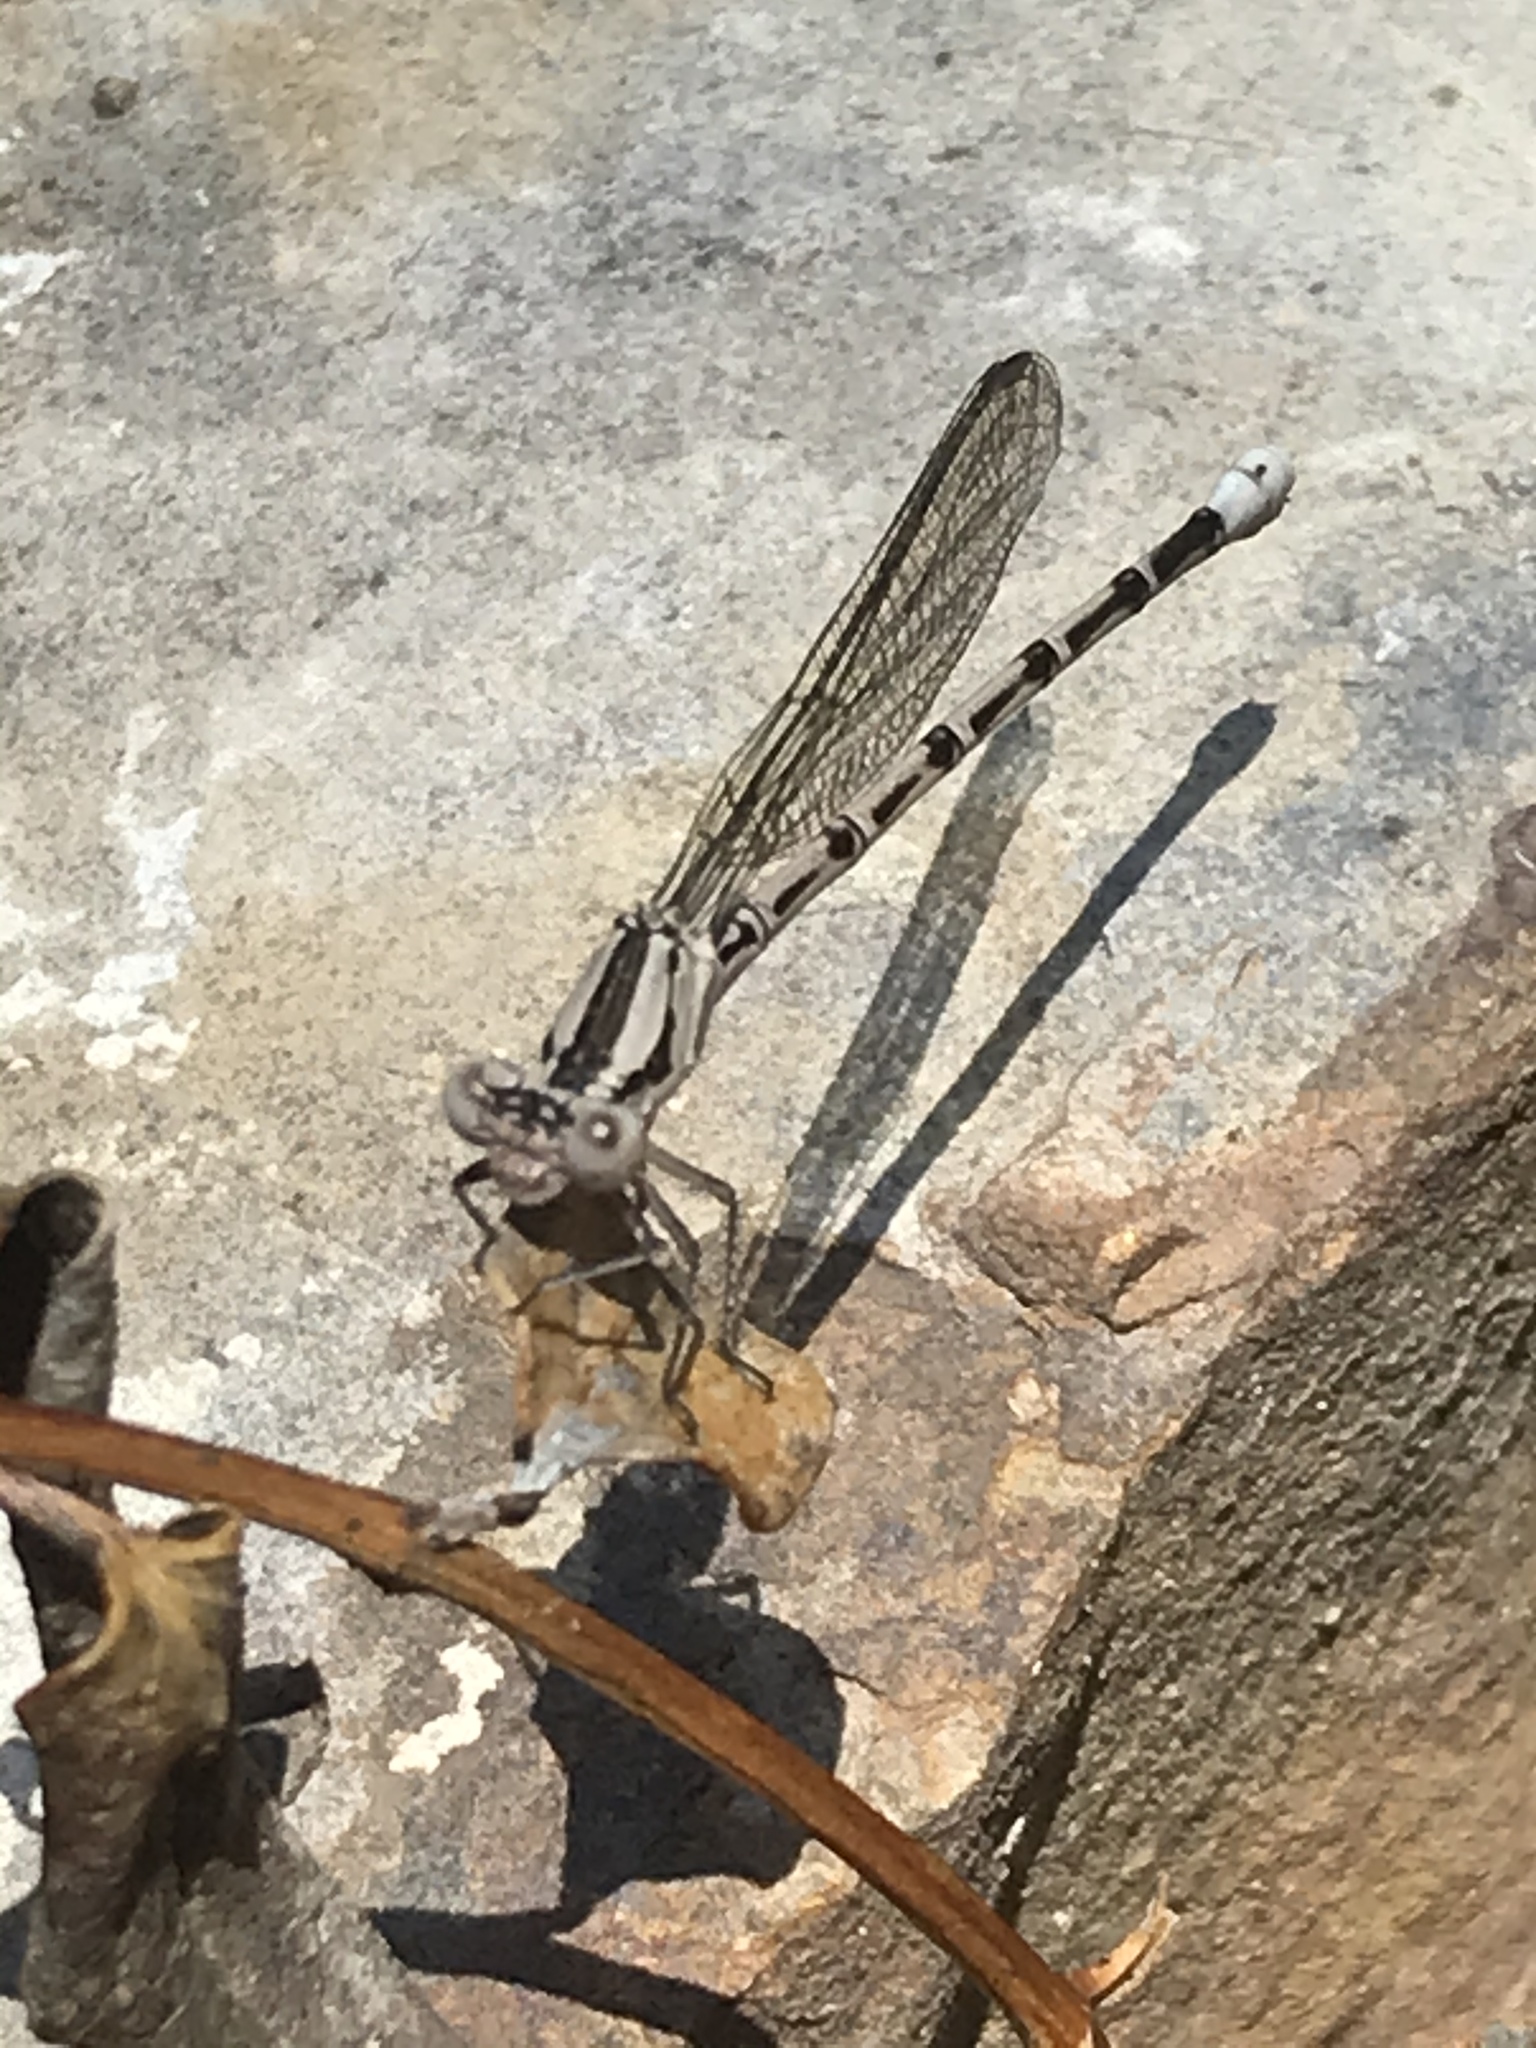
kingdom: Animalia
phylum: Arthropoda
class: Insecta
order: Odonata
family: Coenagrionidae
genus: Argia
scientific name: Argia funebris
